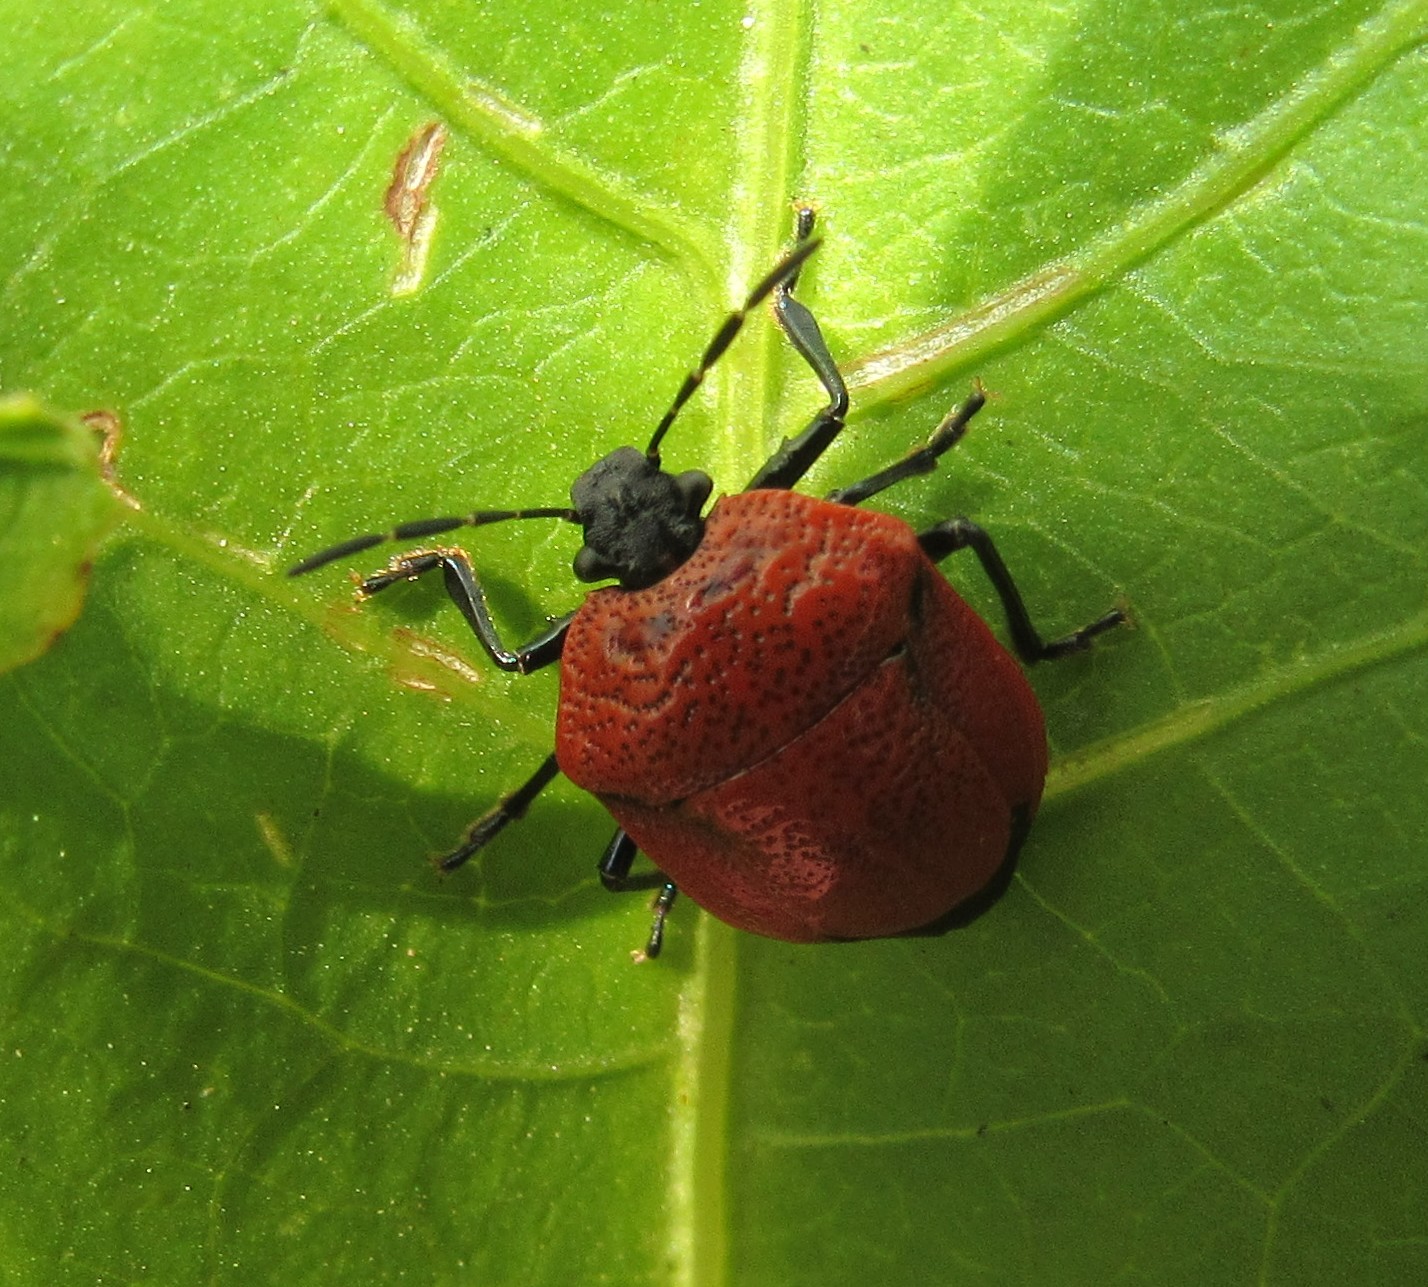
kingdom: Animalia
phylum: Arthropoda
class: Insecta
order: Hemiptera
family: Pentatomidae
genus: Stiretrus
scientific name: Stiretrus decemguttatus
